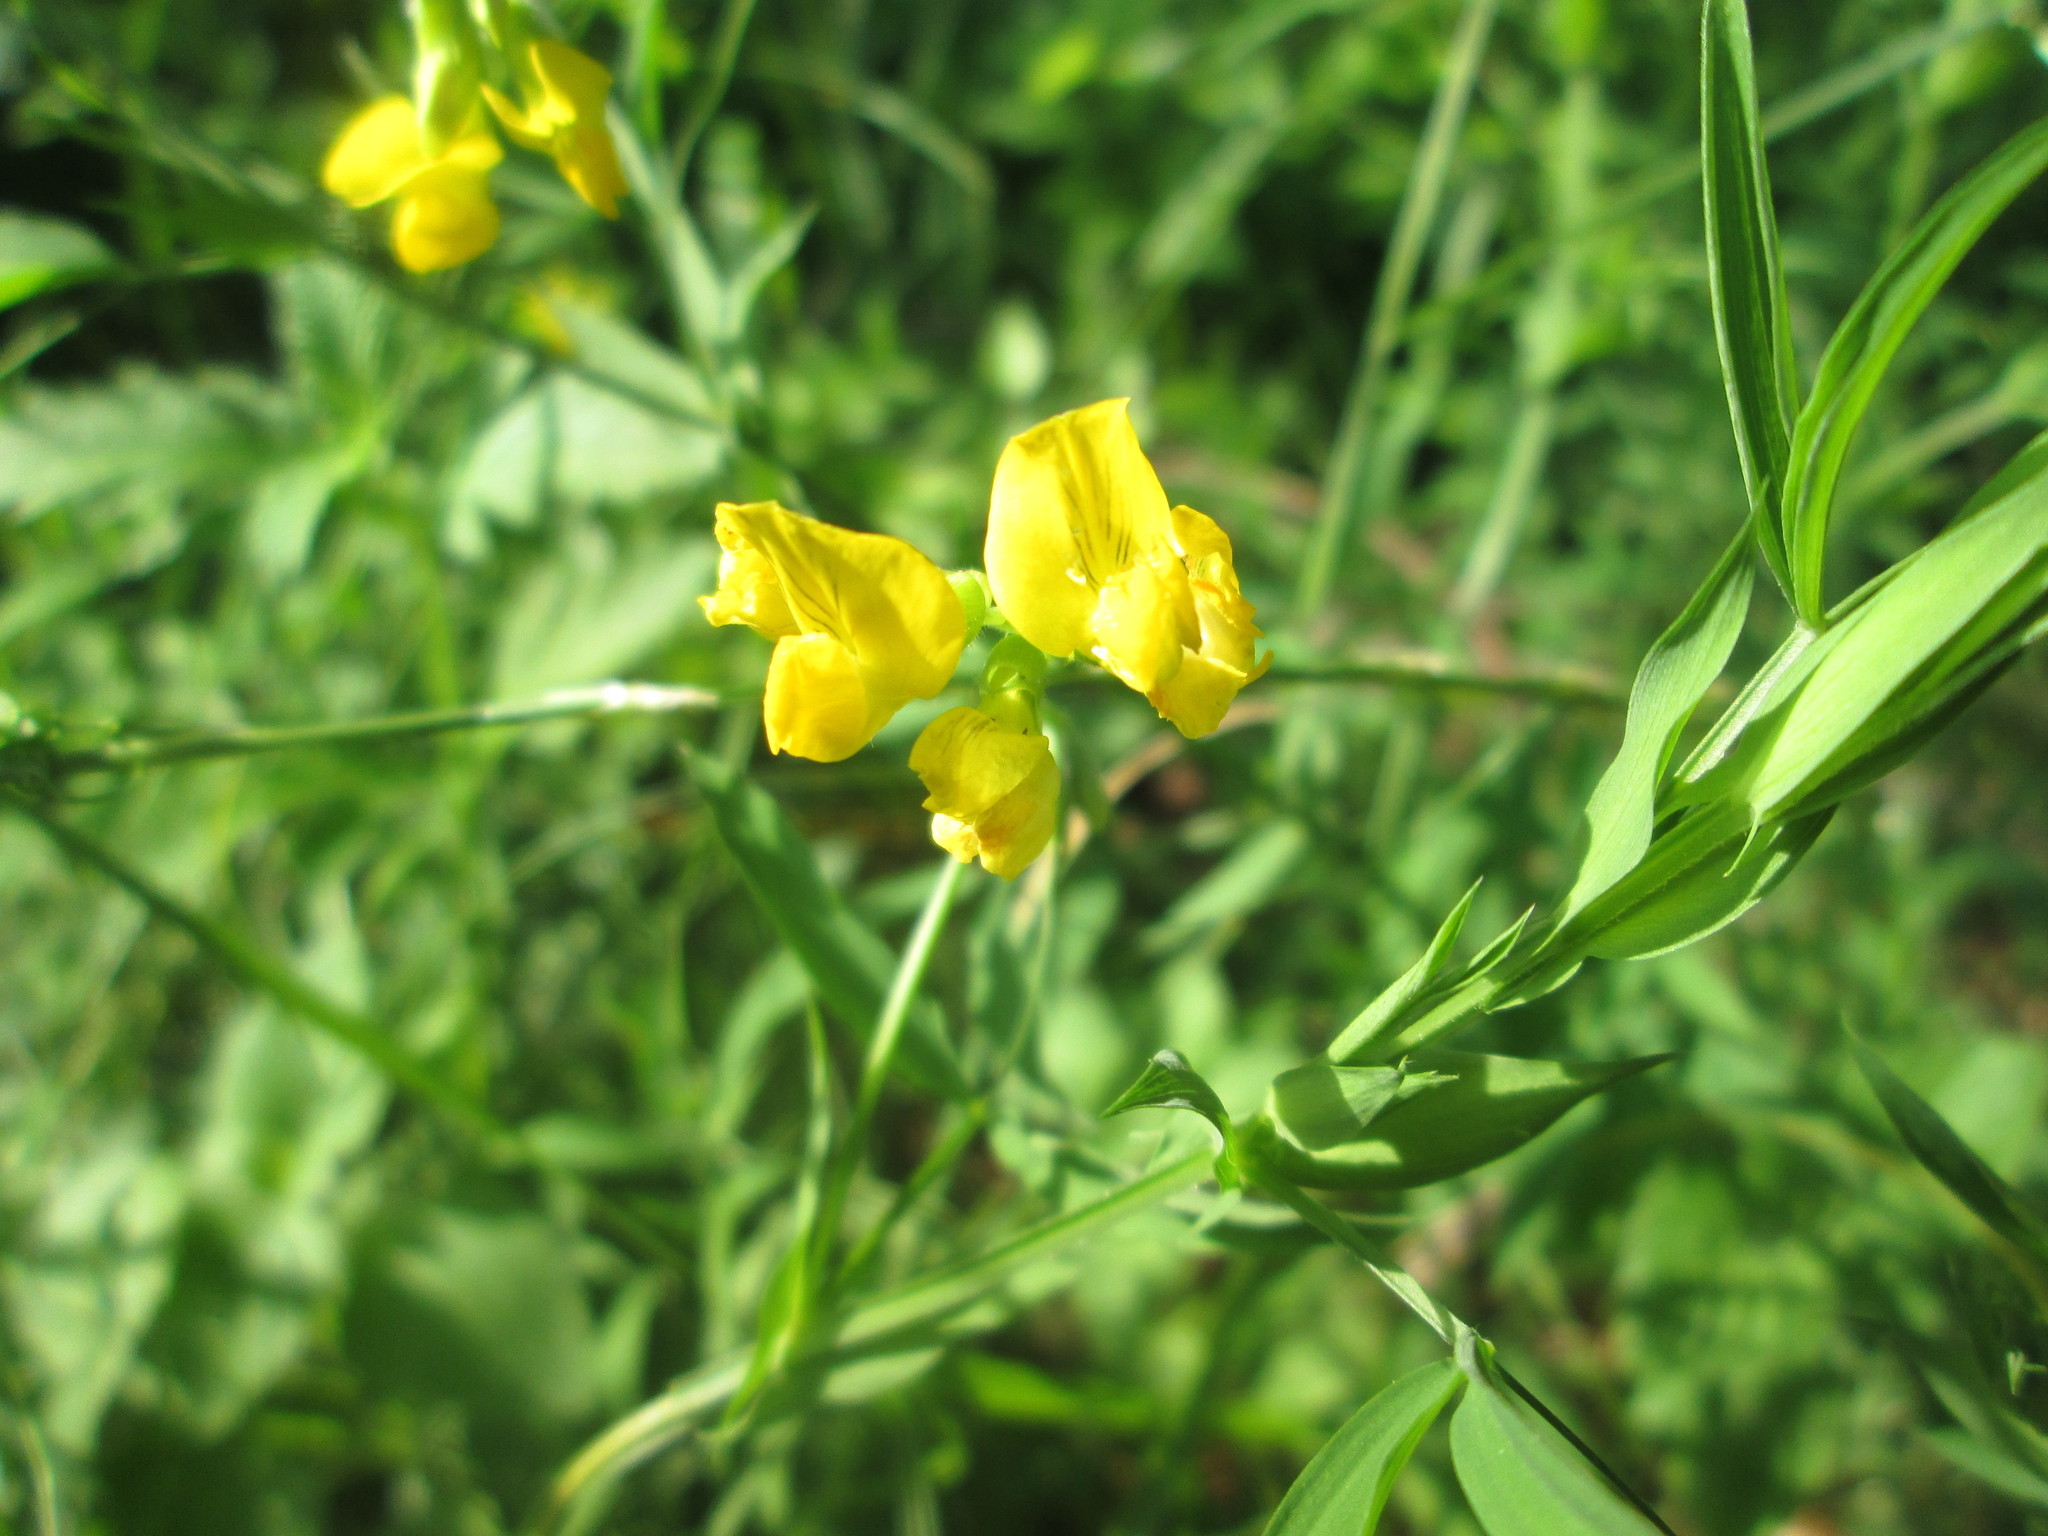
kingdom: Plantae
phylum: Tracheophyta
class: Magnoliopsida
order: Fabales
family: Fabaceae
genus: Lathyrus
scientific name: Lathyrus pratensis
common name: Meadow vetchling
